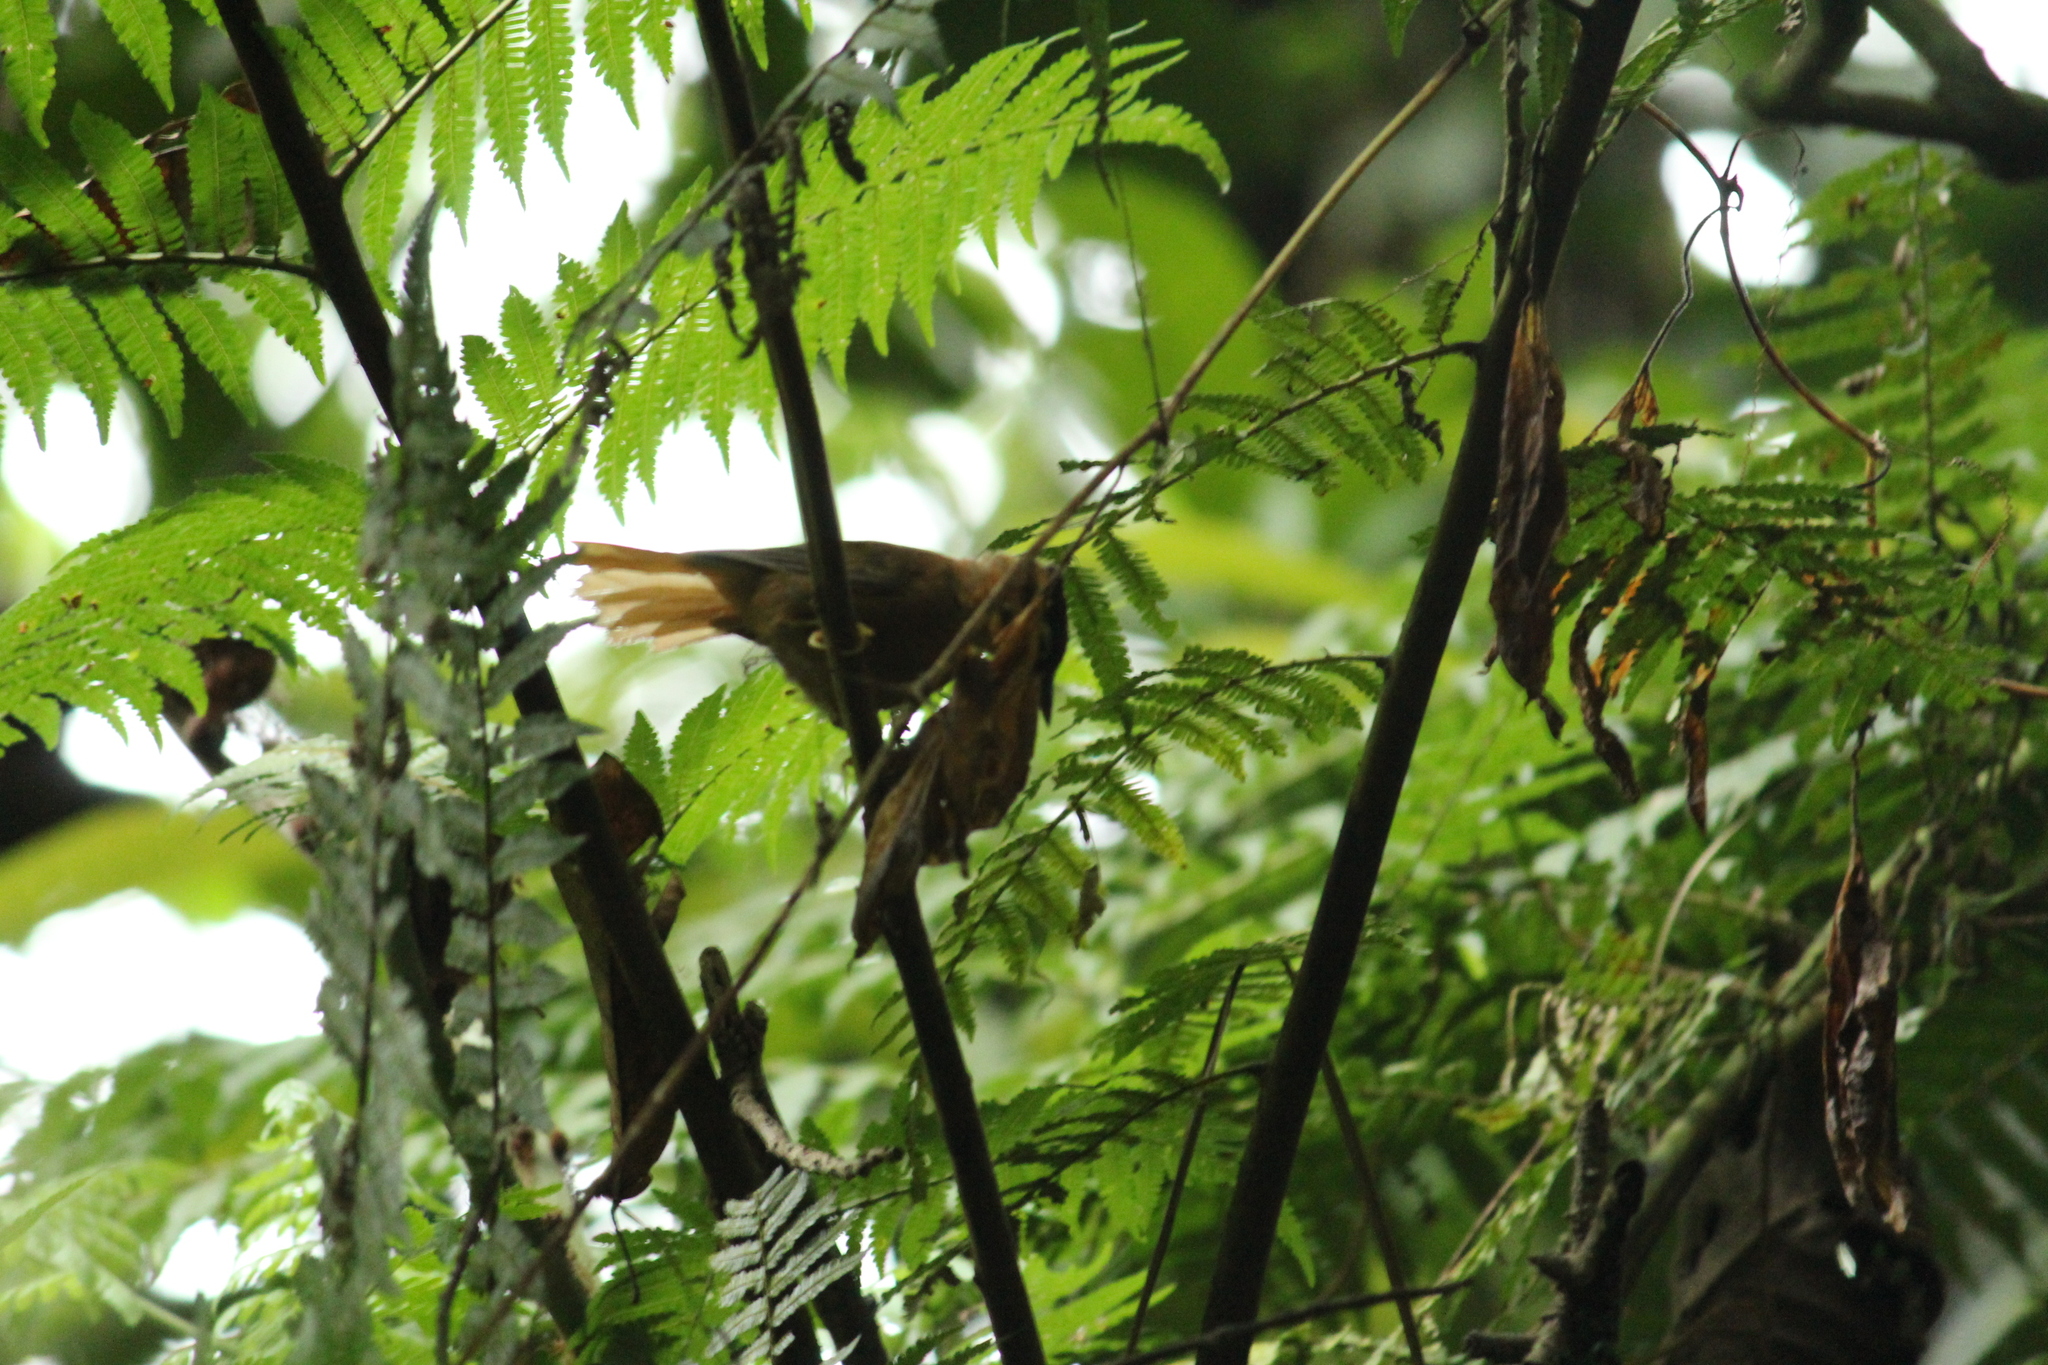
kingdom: Animalia
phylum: Chordata
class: Aves
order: Passeriformes
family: Furnariidae
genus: Philydor
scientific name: Philydor atricapillus
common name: Black-capped foliage-gleaner
